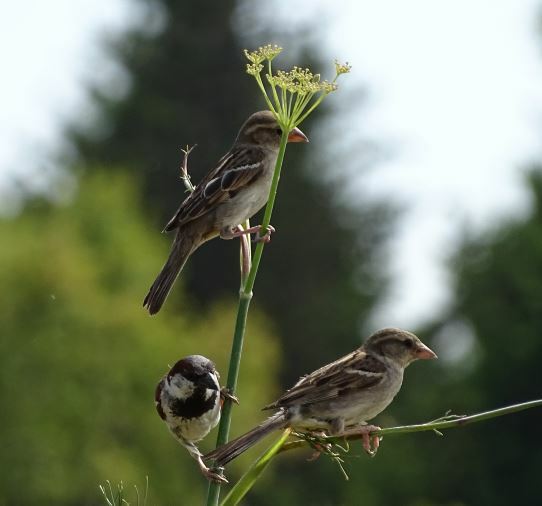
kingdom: Animalia
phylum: Chordata
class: Aves
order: Passeriformes
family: Passeridae
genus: Passer
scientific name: Passer domesticus
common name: House sparrow
